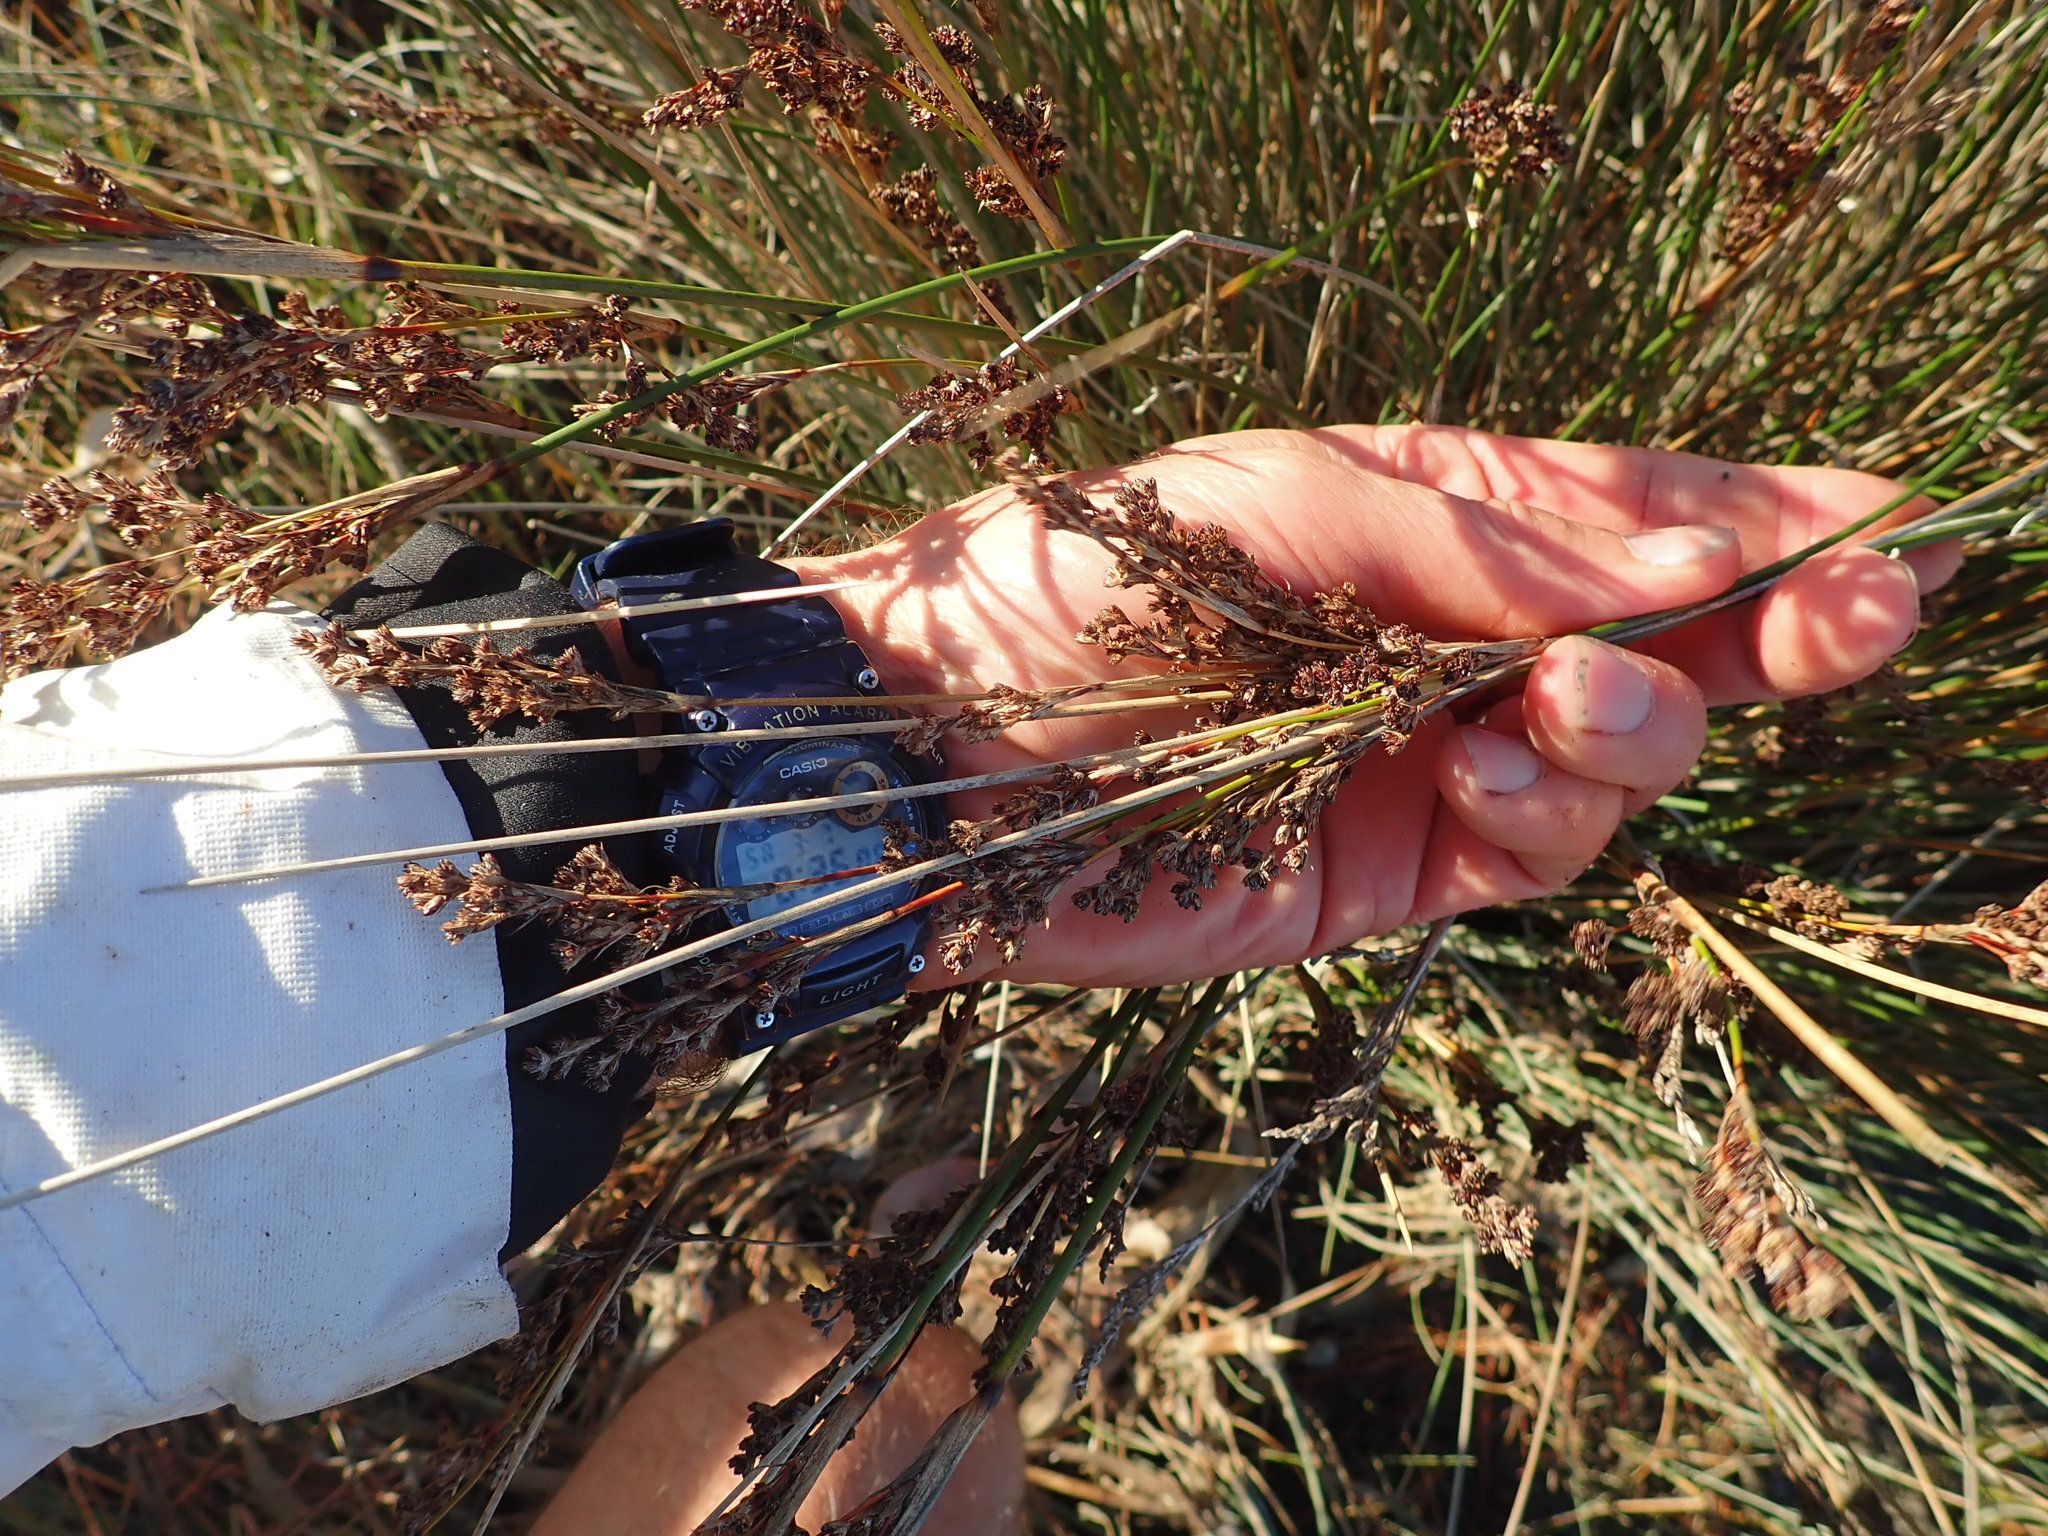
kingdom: Plantae
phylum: Tracheophyta
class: Liliopsida
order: Poales
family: Juncaceae
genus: Juncus
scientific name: Juncus kraussii
